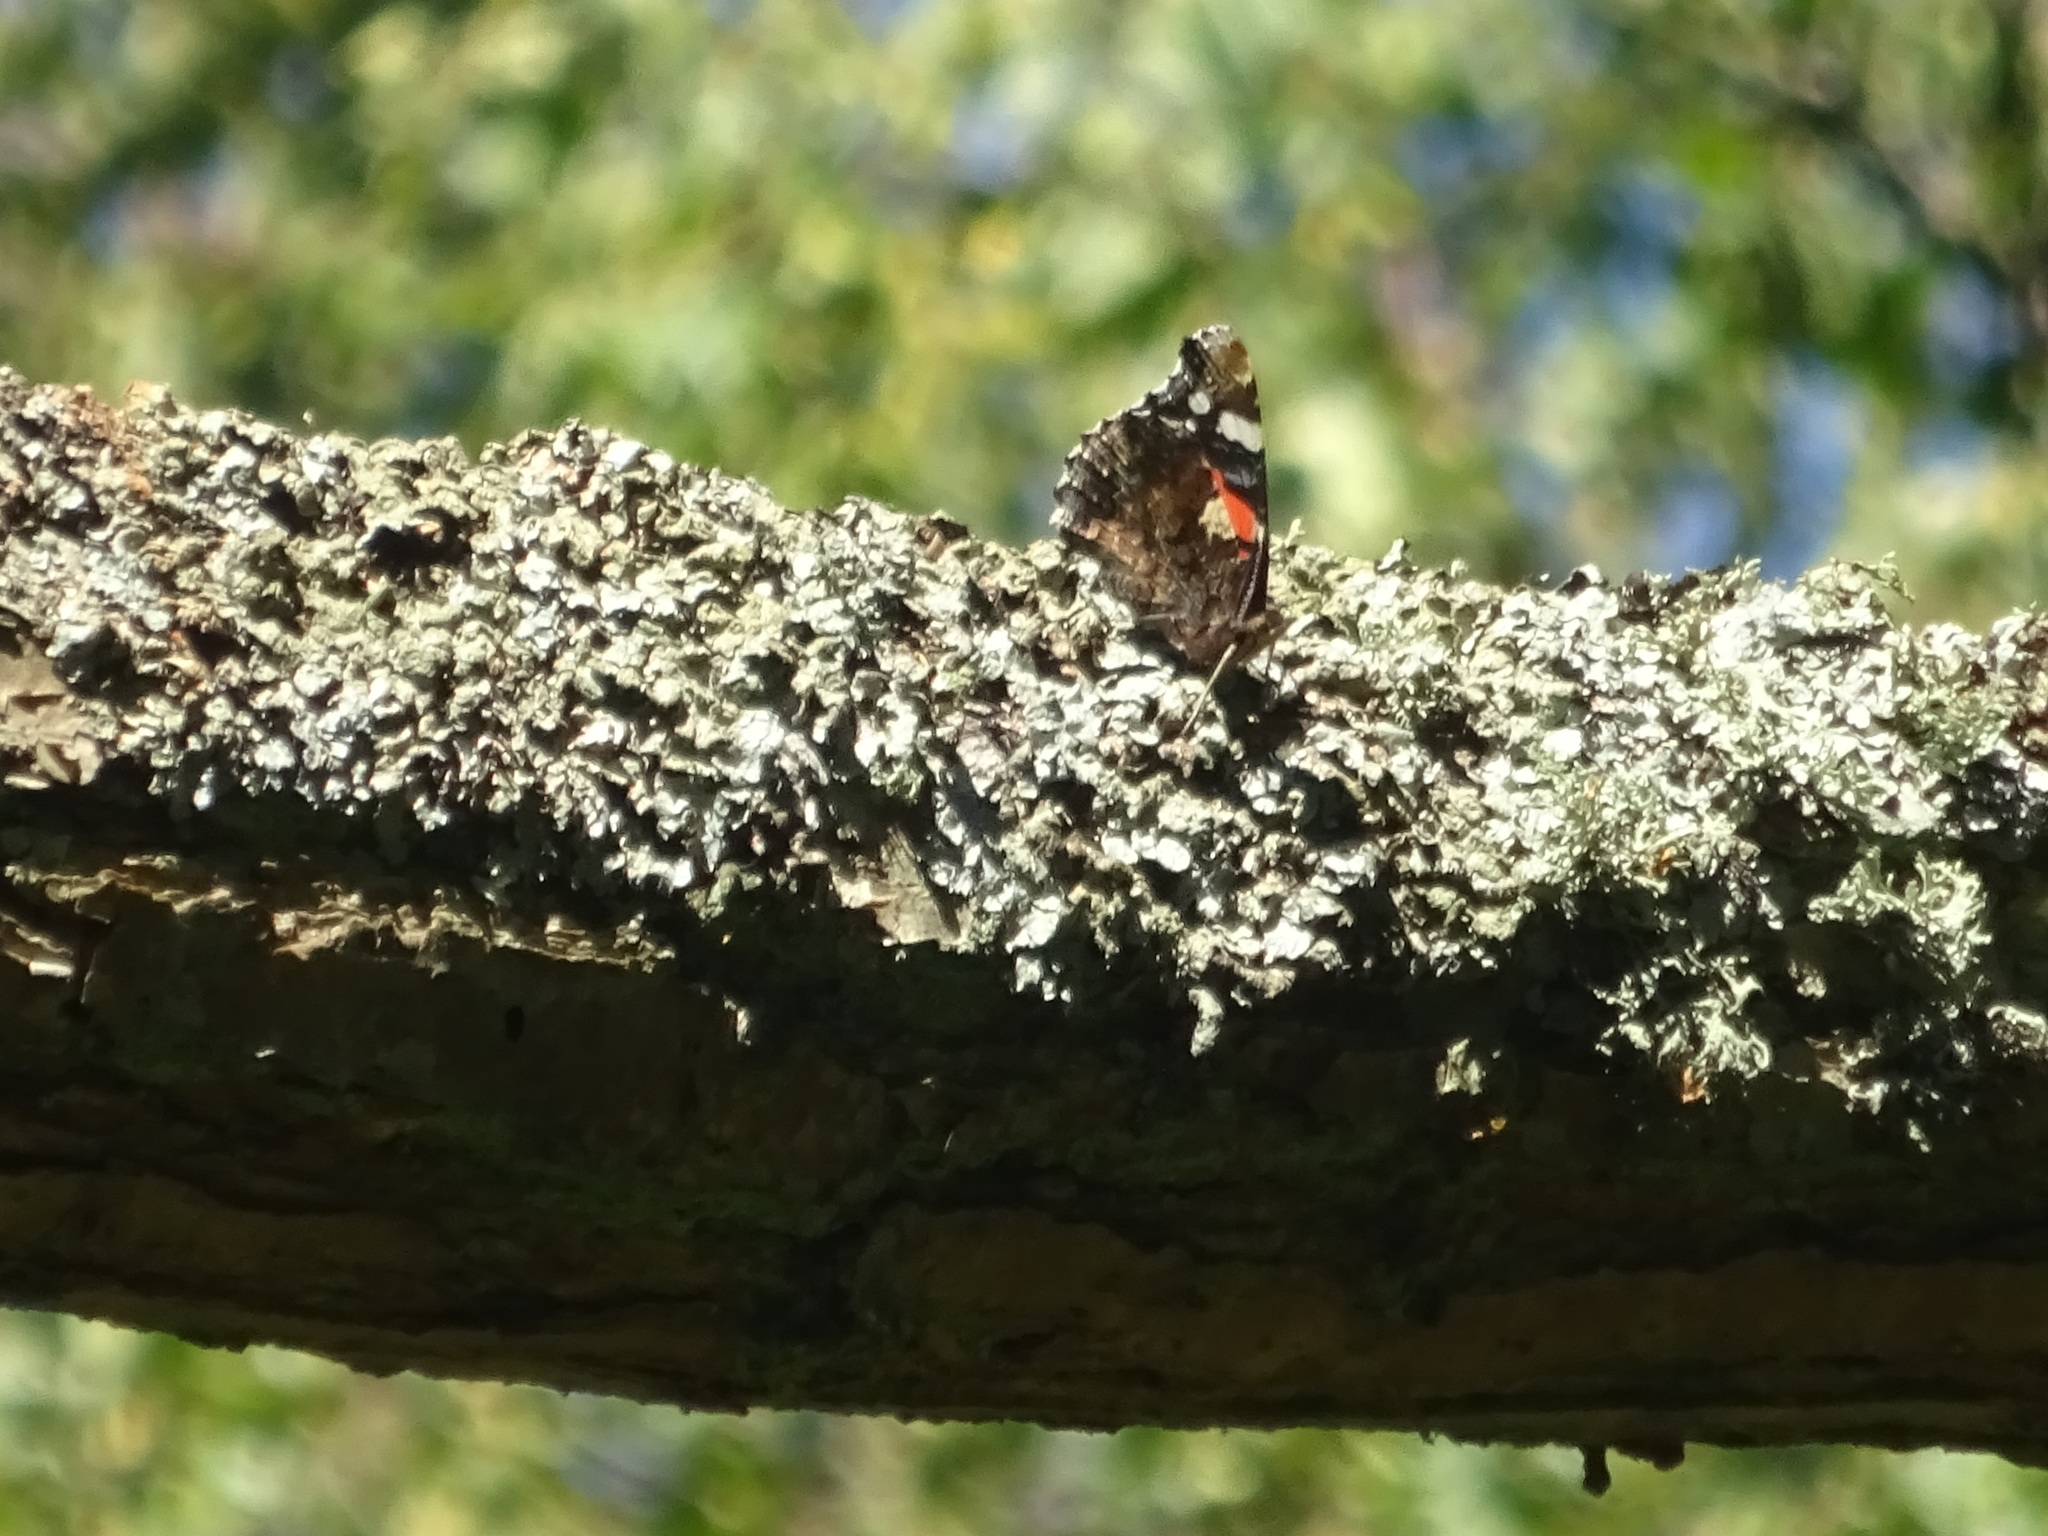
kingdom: Animalia
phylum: Arthropoda
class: Insecta
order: Lepidoptera
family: Nymphalidae
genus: Vanessa
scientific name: Vanessa atalanta
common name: Red admiral
